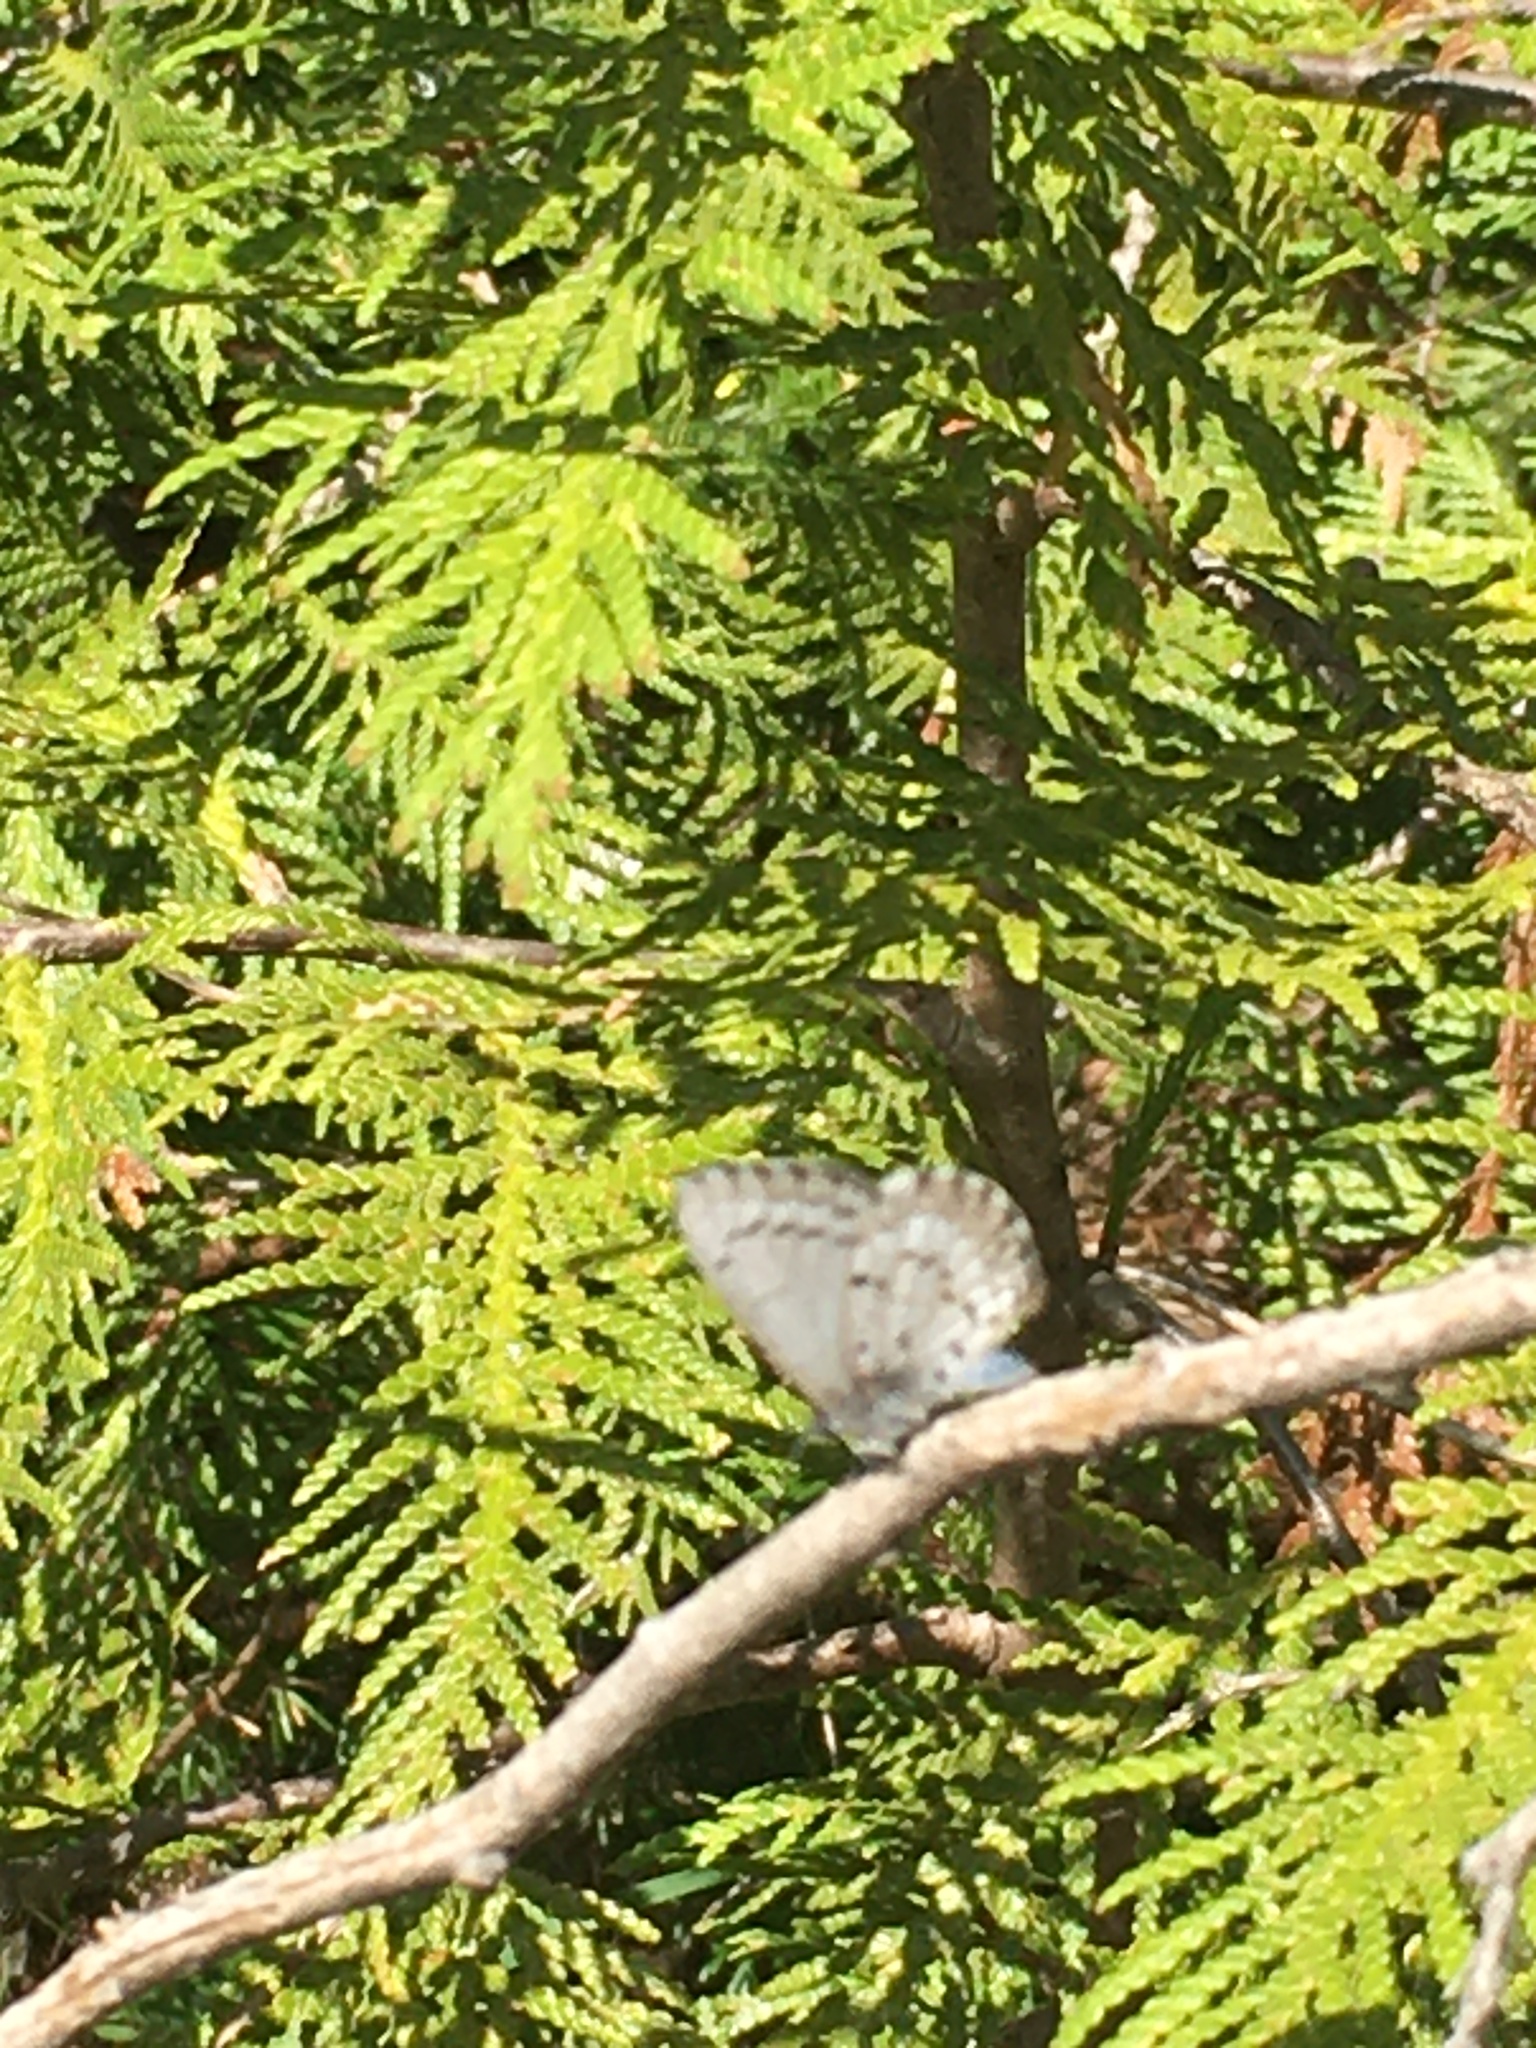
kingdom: Animalia
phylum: Arthropoda
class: Insecta
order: Lepidoptera
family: Lycaenidae
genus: Celastrina
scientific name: Celastrina lucia
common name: Lucia azure
